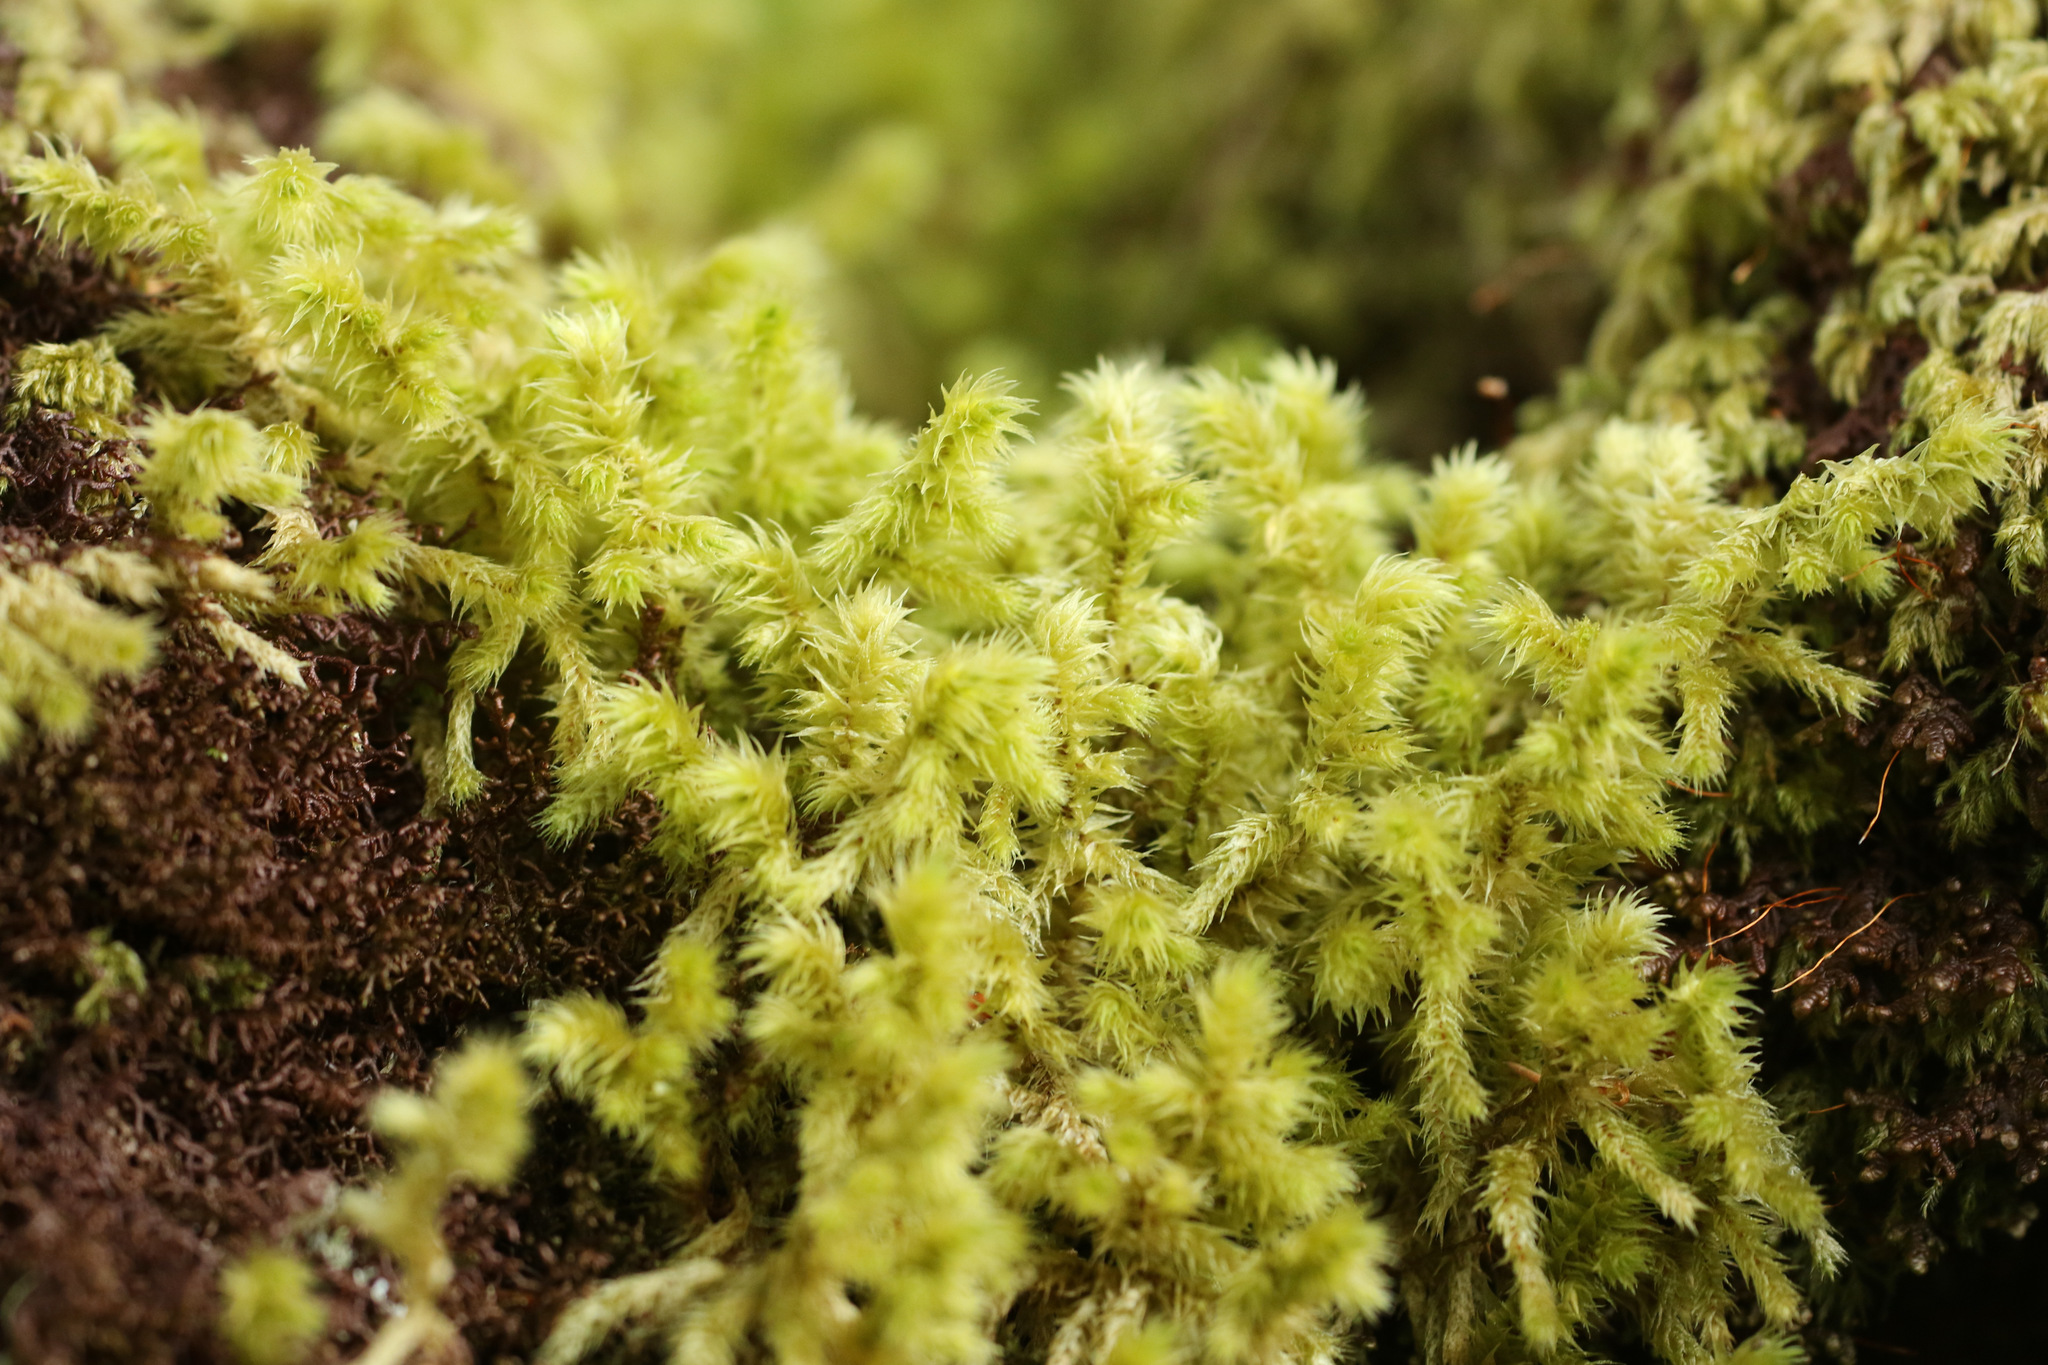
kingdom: Plantae
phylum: Bryophyta
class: Bryopsida
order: Hypnales
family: Hylocomiaceae
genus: Hylocomiadelphus
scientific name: Hylocomiadelphus triquetrus
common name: Rough goose neck moss
